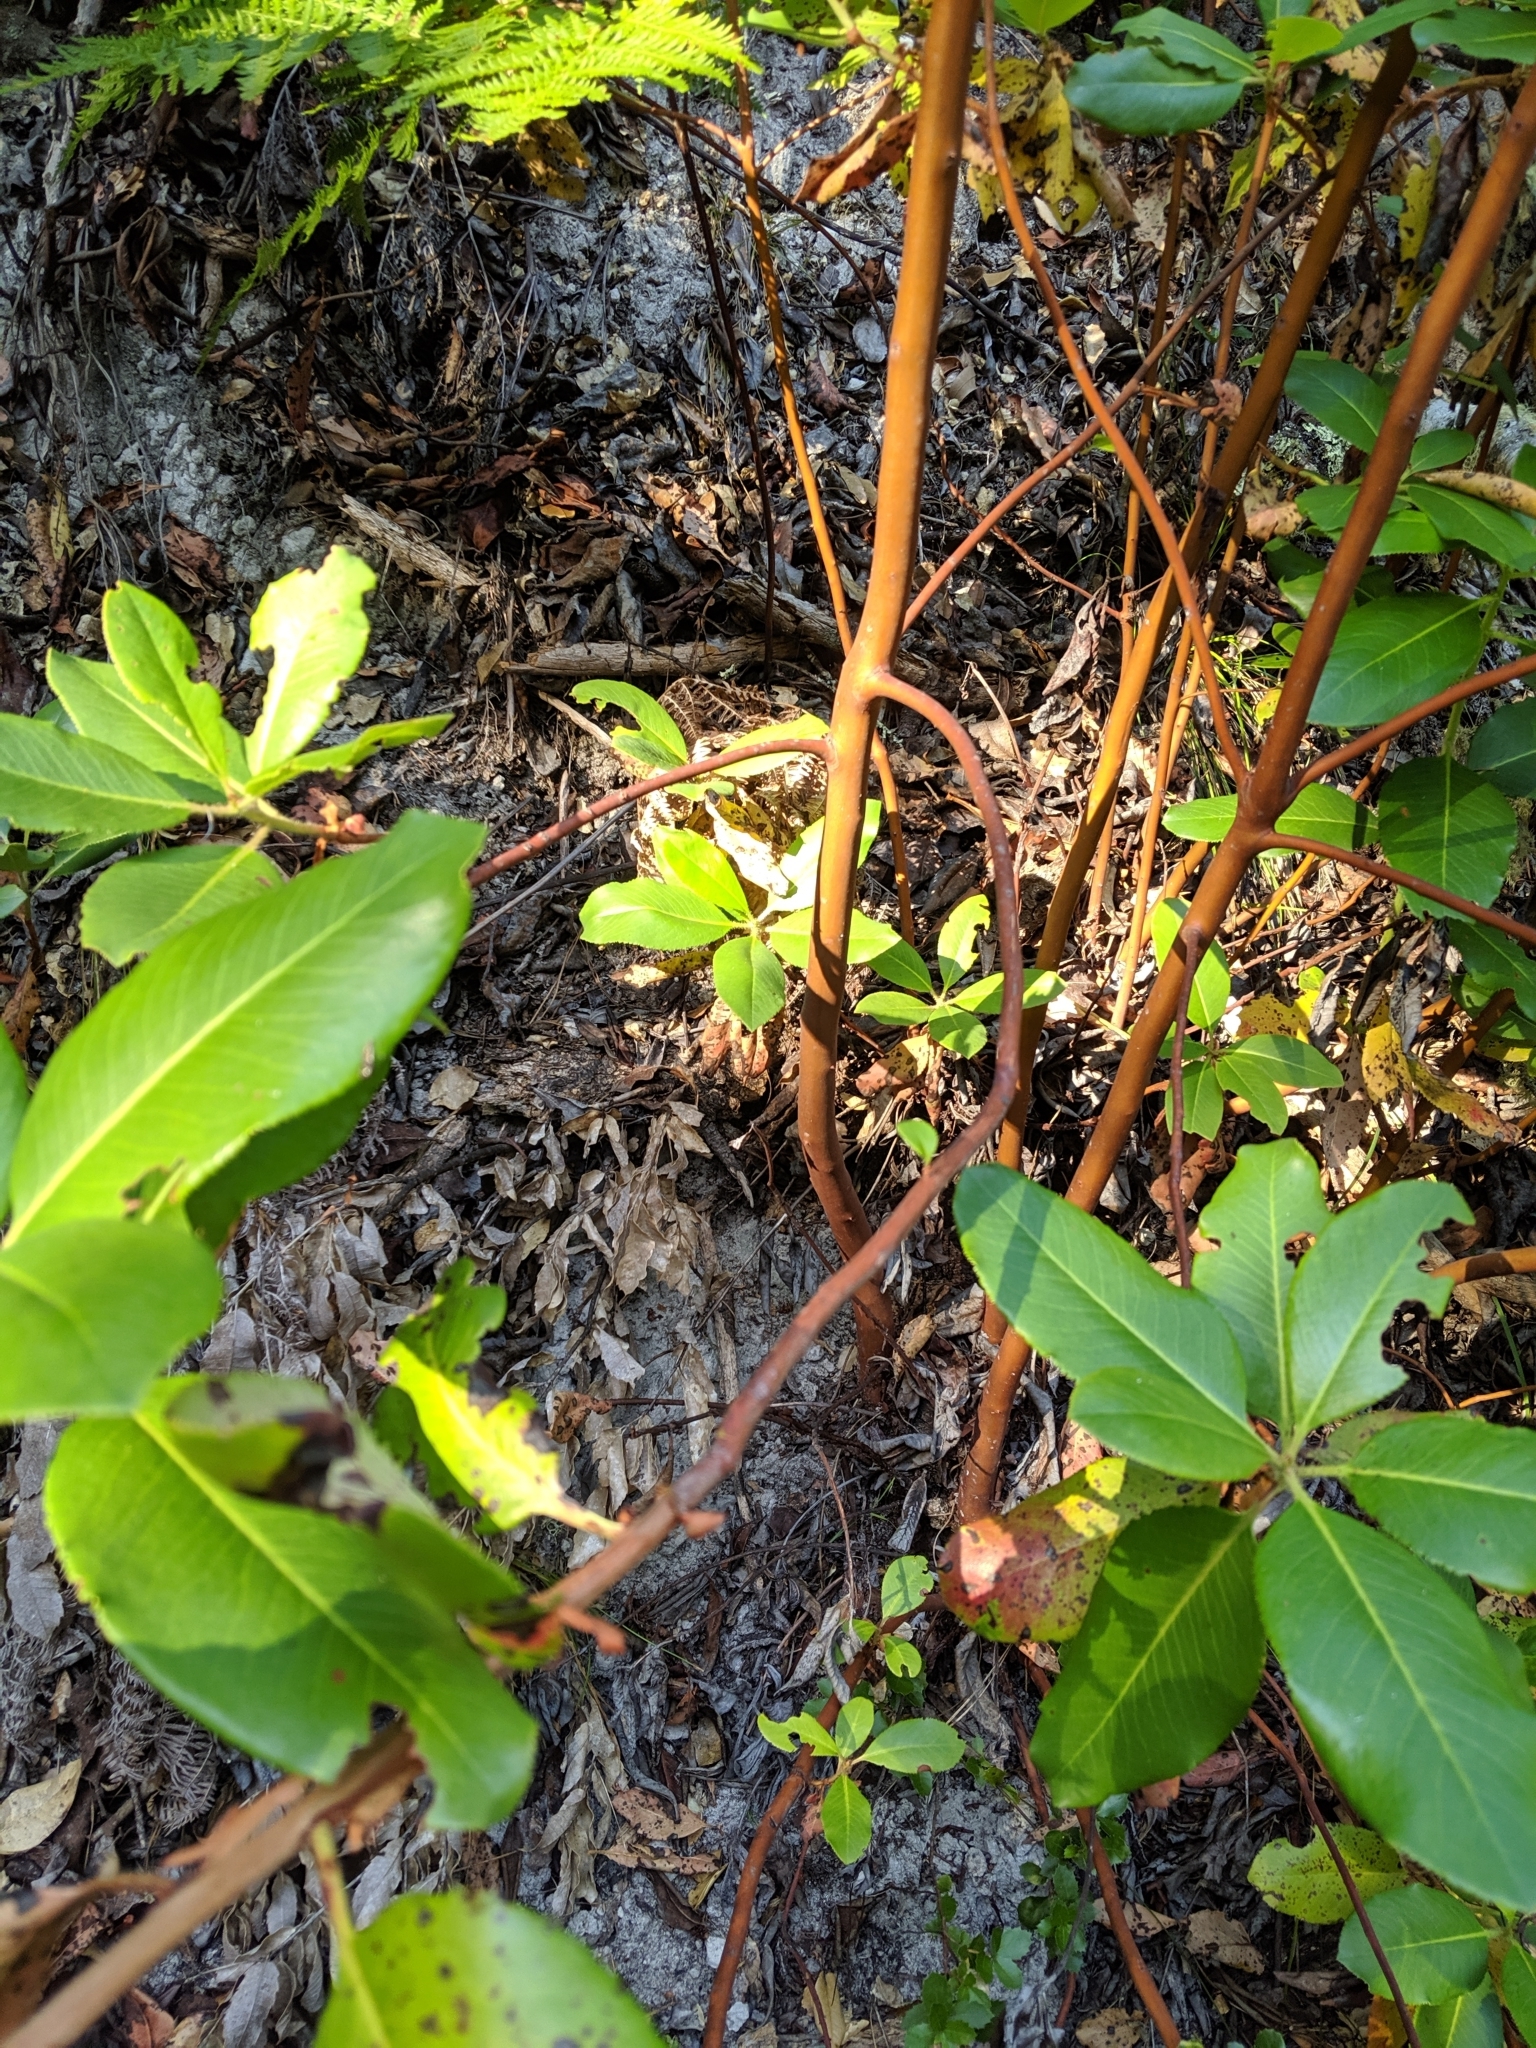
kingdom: Plantae
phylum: Tracheophyta
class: Magnoliopsida
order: Ericales
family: Ericaceae
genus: Arbutus
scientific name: Arbutus menziesii
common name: Pacific madrone
